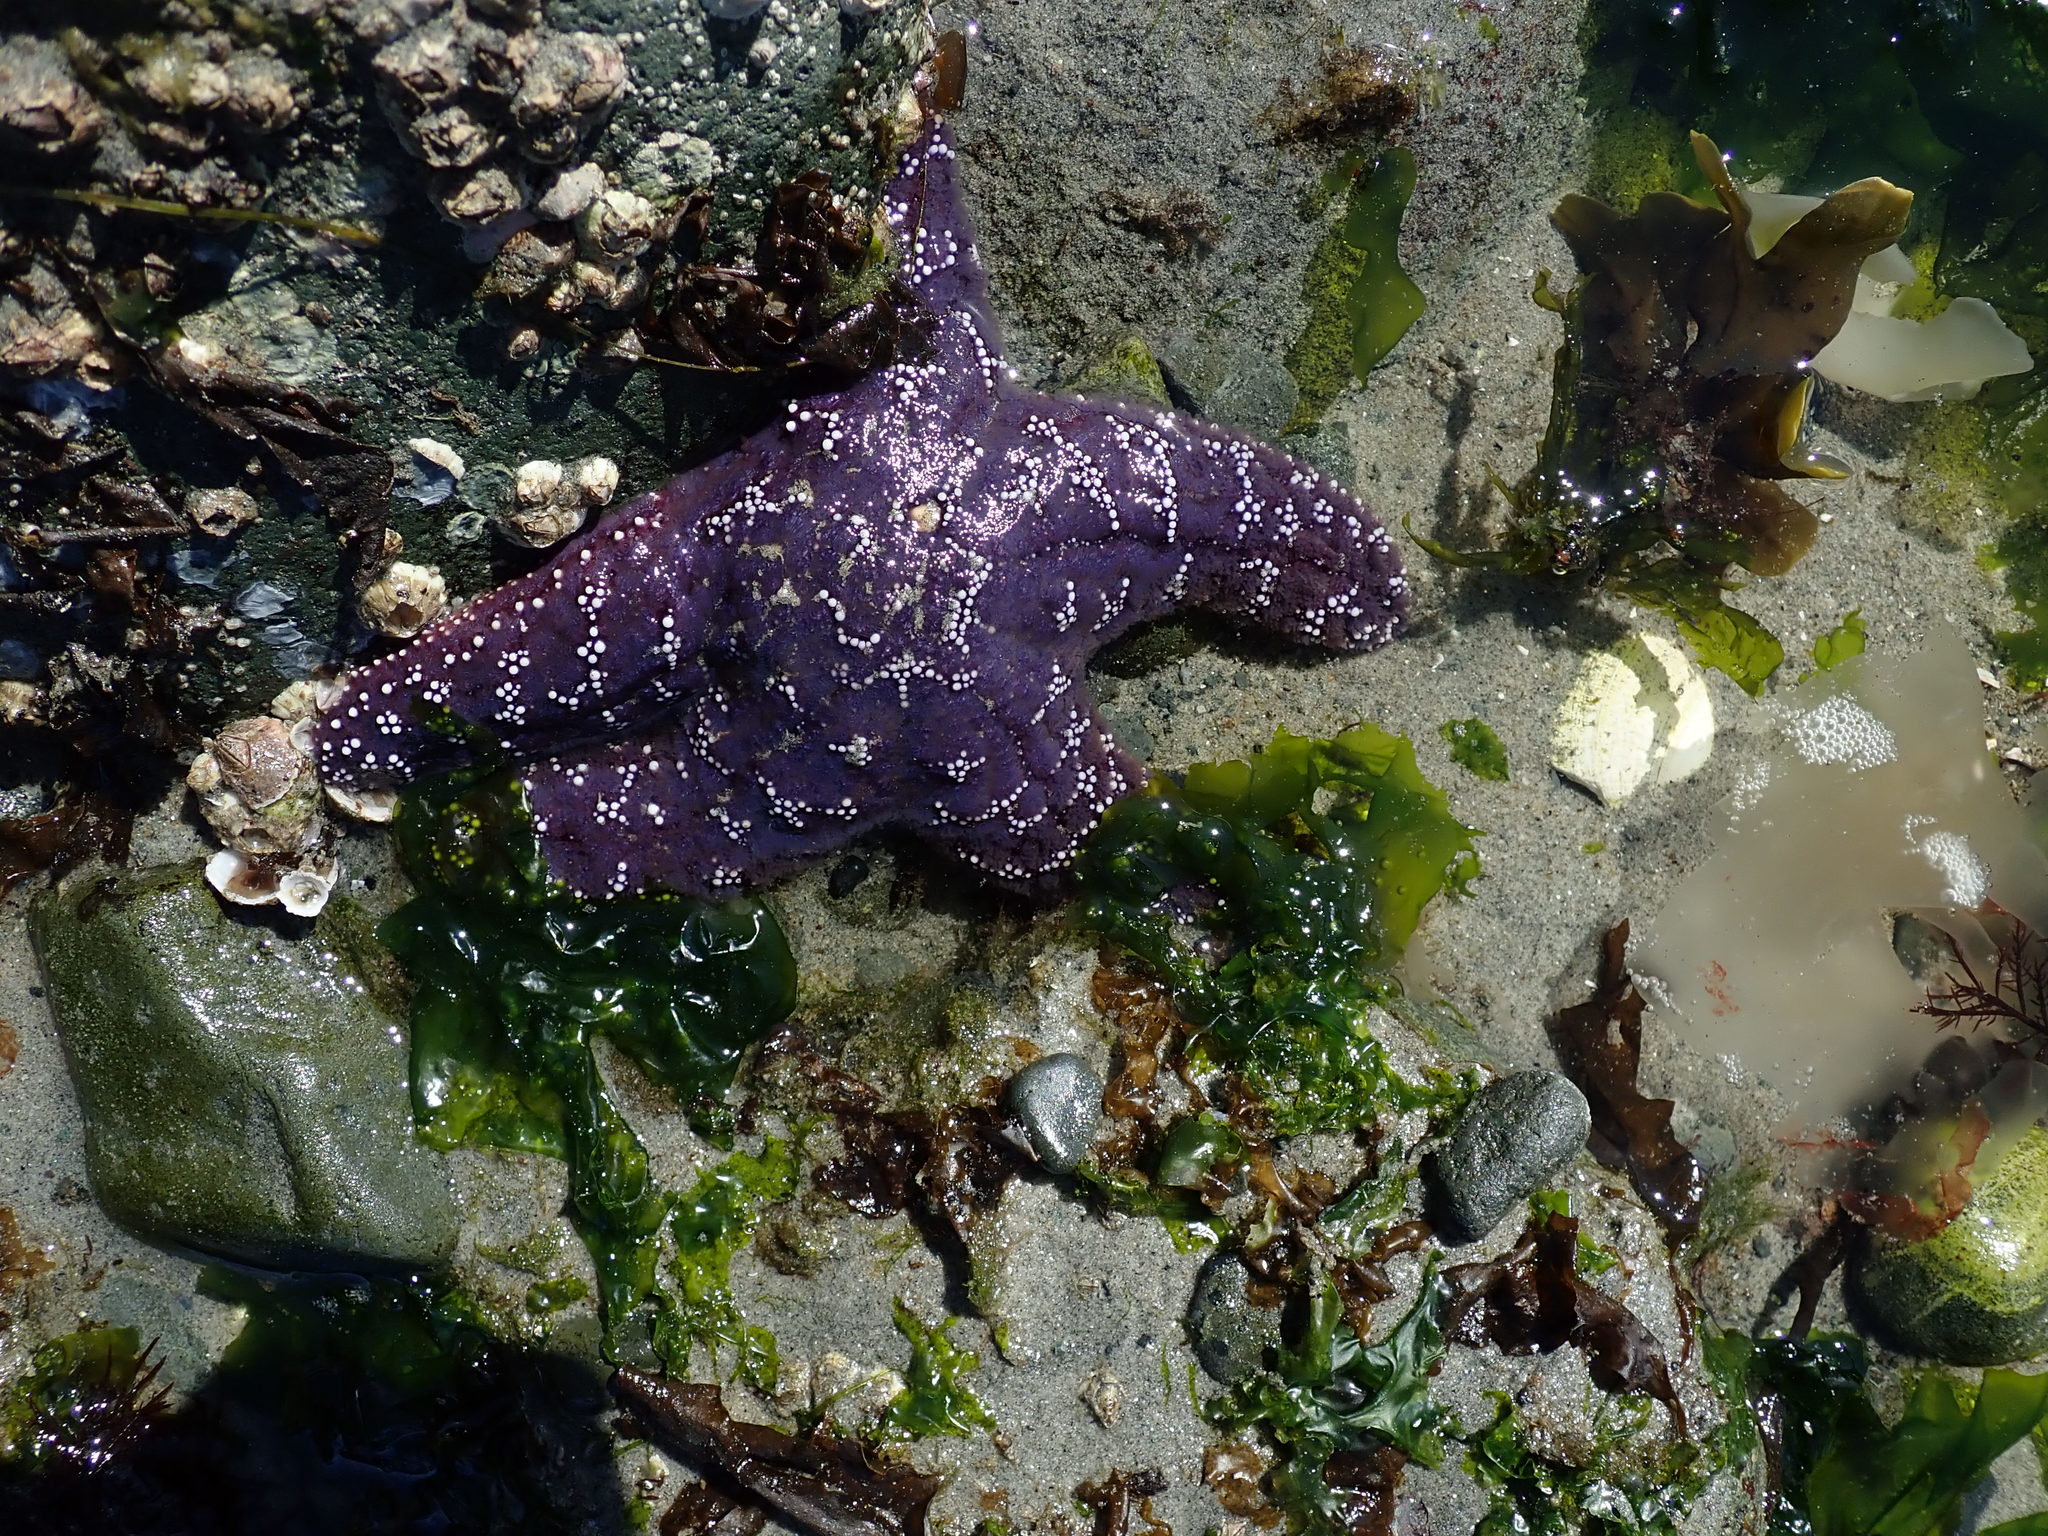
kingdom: Animalia
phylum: Echinodermata
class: Asteroidea
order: Forcipulatida
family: Asteriidae
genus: Pisaster
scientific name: Pisaster ochraceus
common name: Ochre stars
